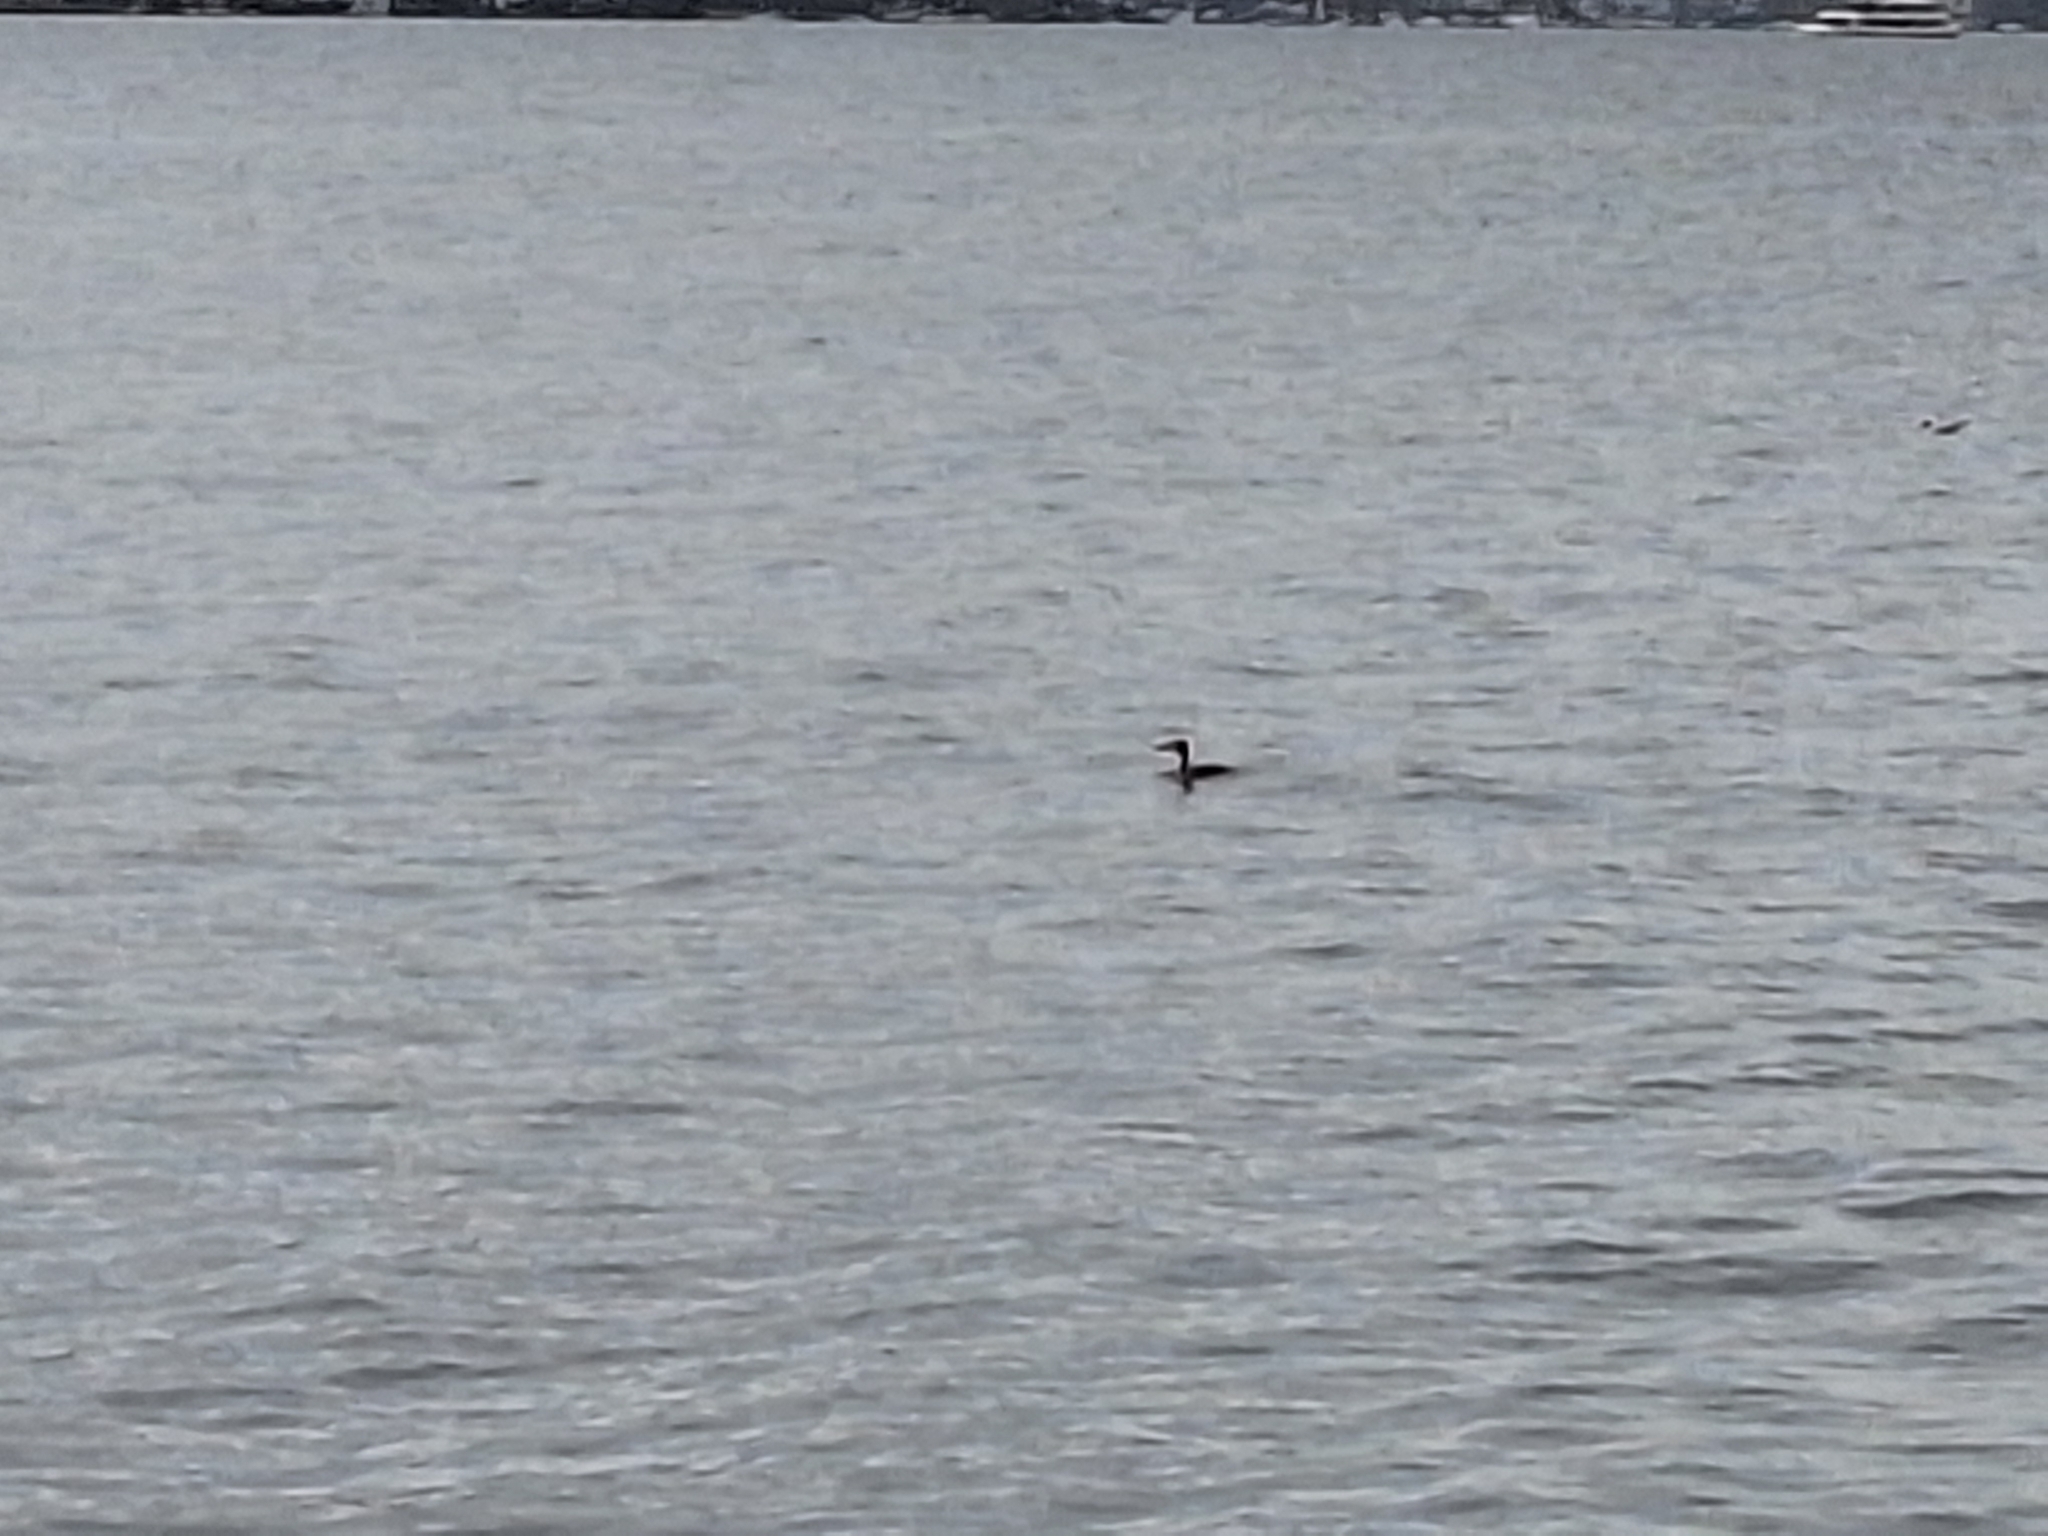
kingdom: Animalia
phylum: Chordata
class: Aves
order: Podicipediformes
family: Podicipedidae
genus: Podiceps
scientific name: Podiceps cristatus
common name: Great crested grebe
